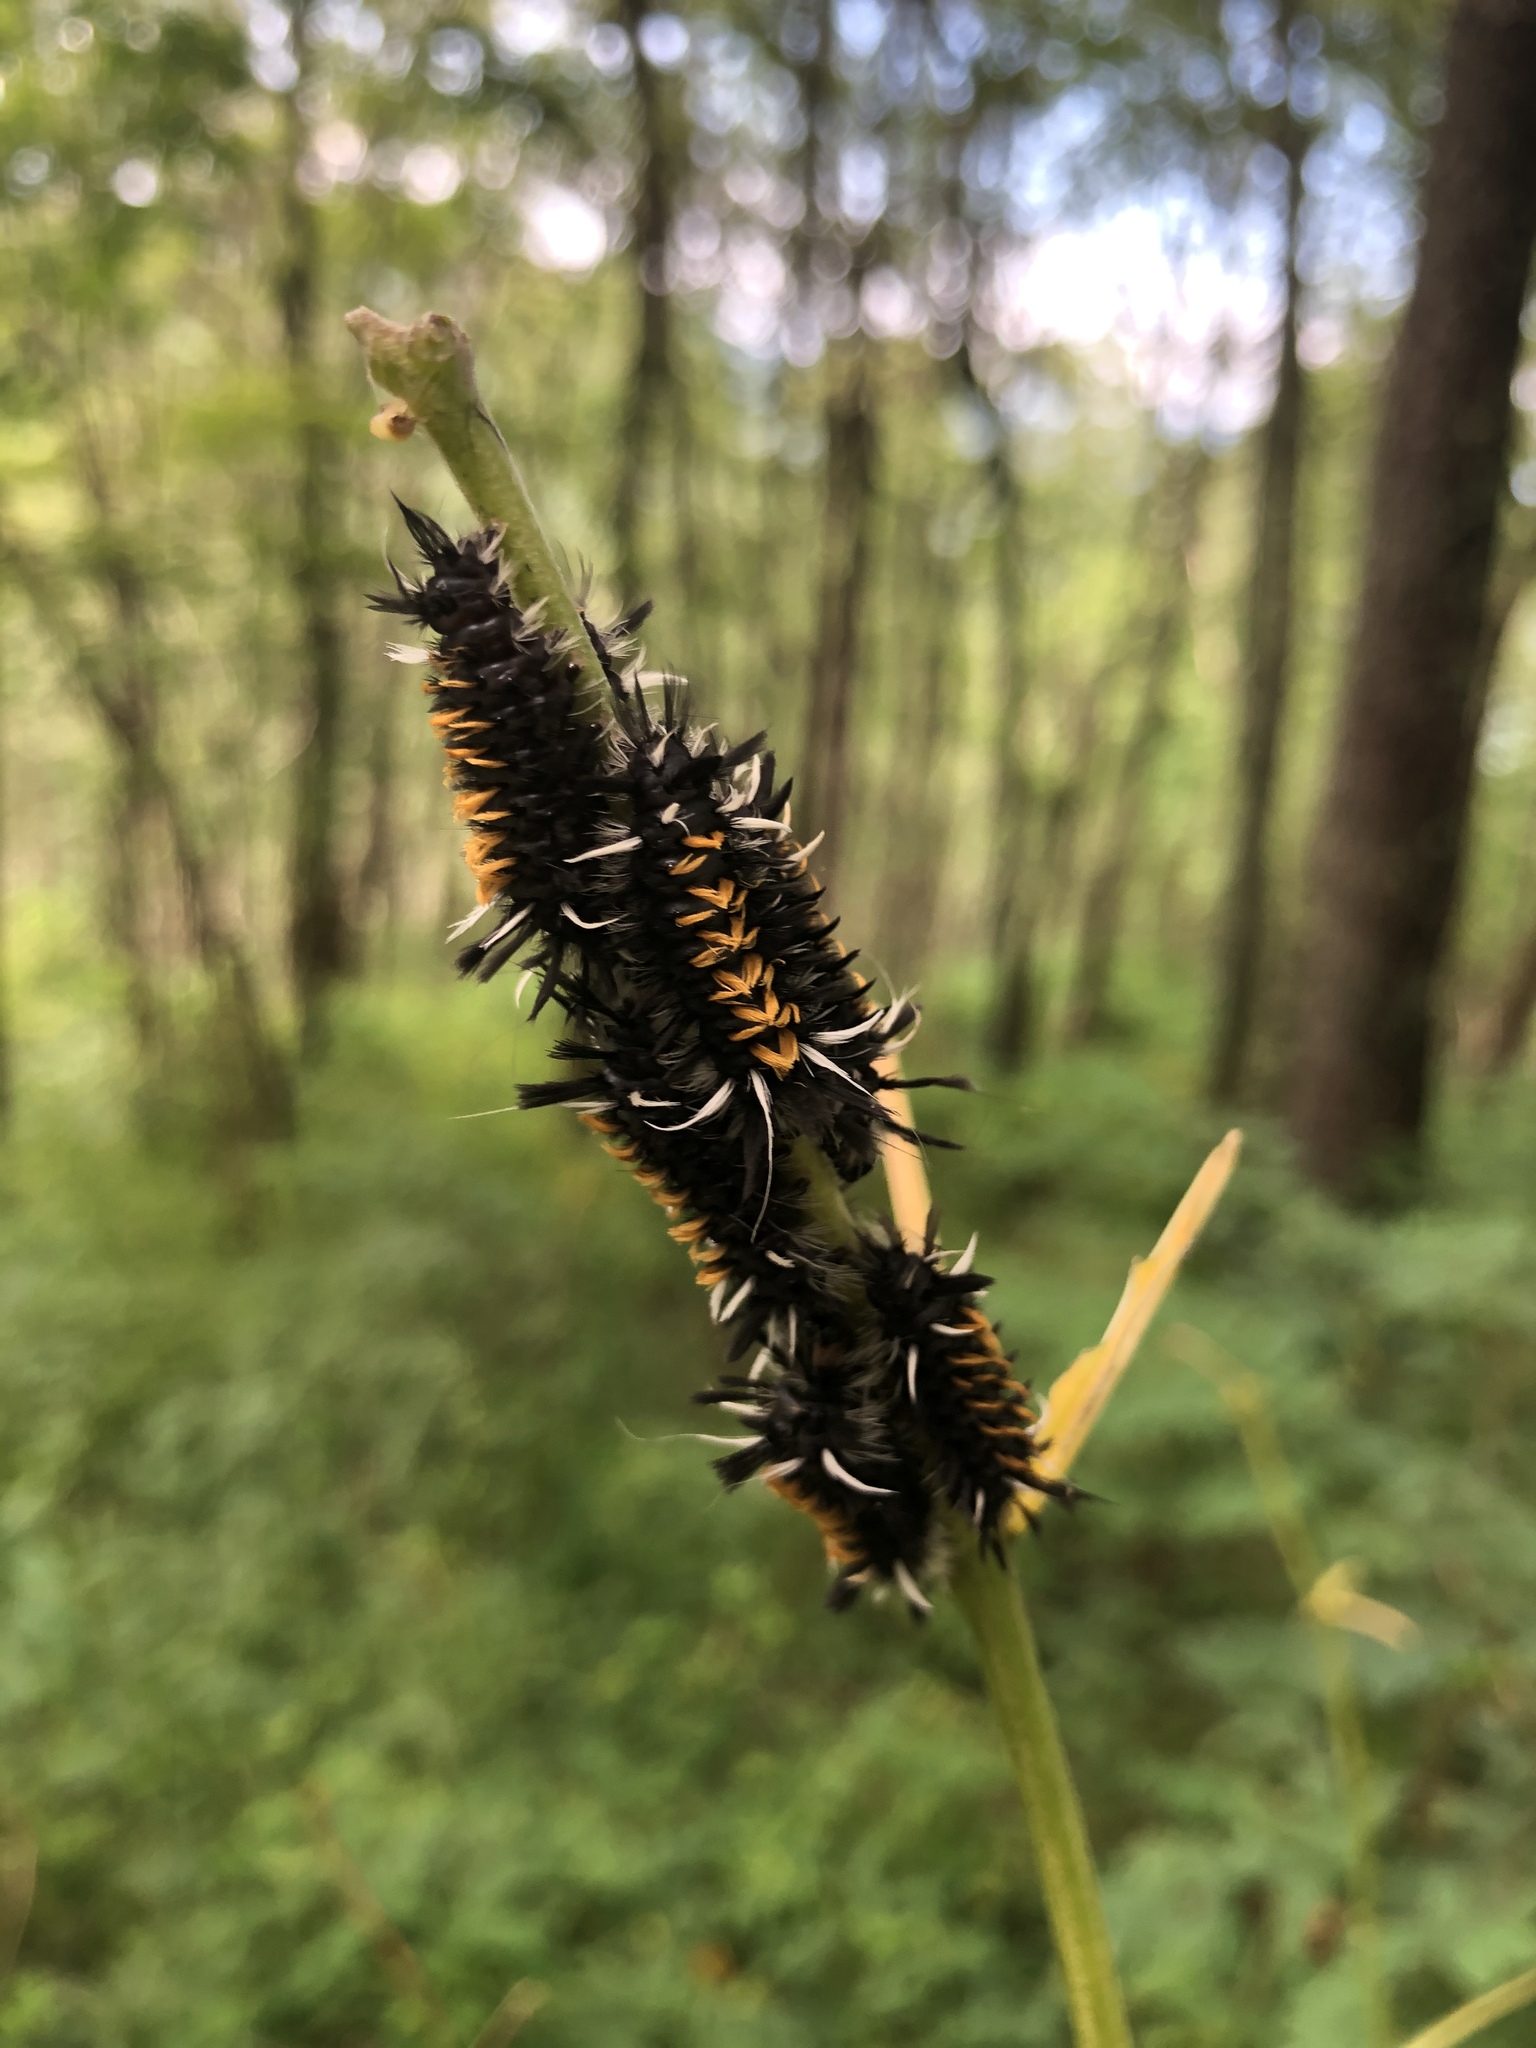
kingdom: Animalia
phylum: Arthropoda
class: Insecta
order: Lepidoptera
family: Erebidae
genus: Euchaetes
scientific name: Euchaetes egle
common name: Milkweed tussock moth
